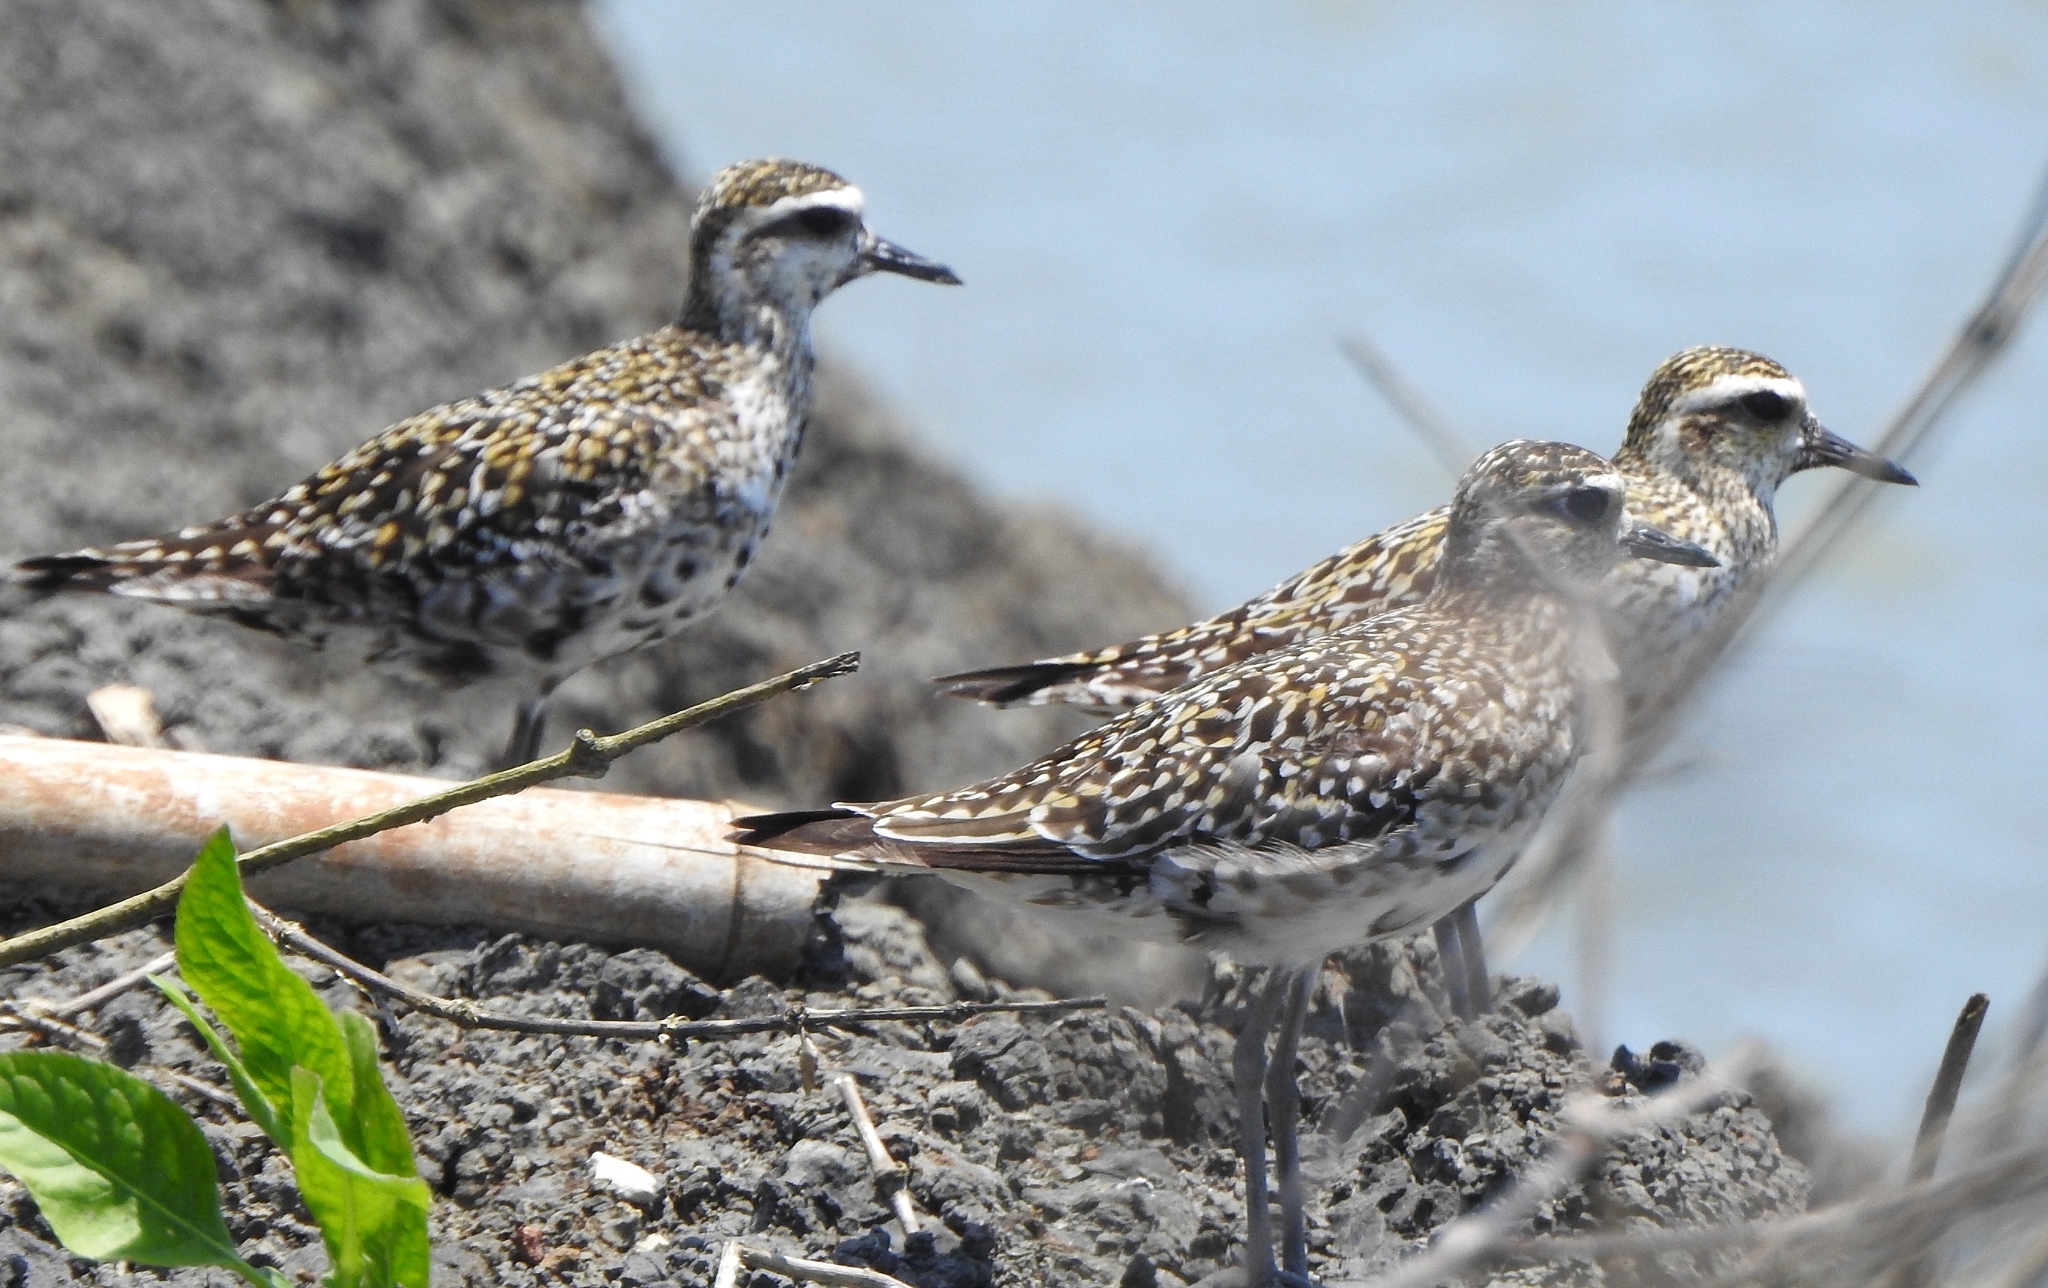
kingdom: Animalia
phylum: Chordata
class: Aves
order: Charadriiformes
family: Charadriidae
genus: Pluvialis
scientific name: Pluvialis fulva
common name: Pacific golden plover
